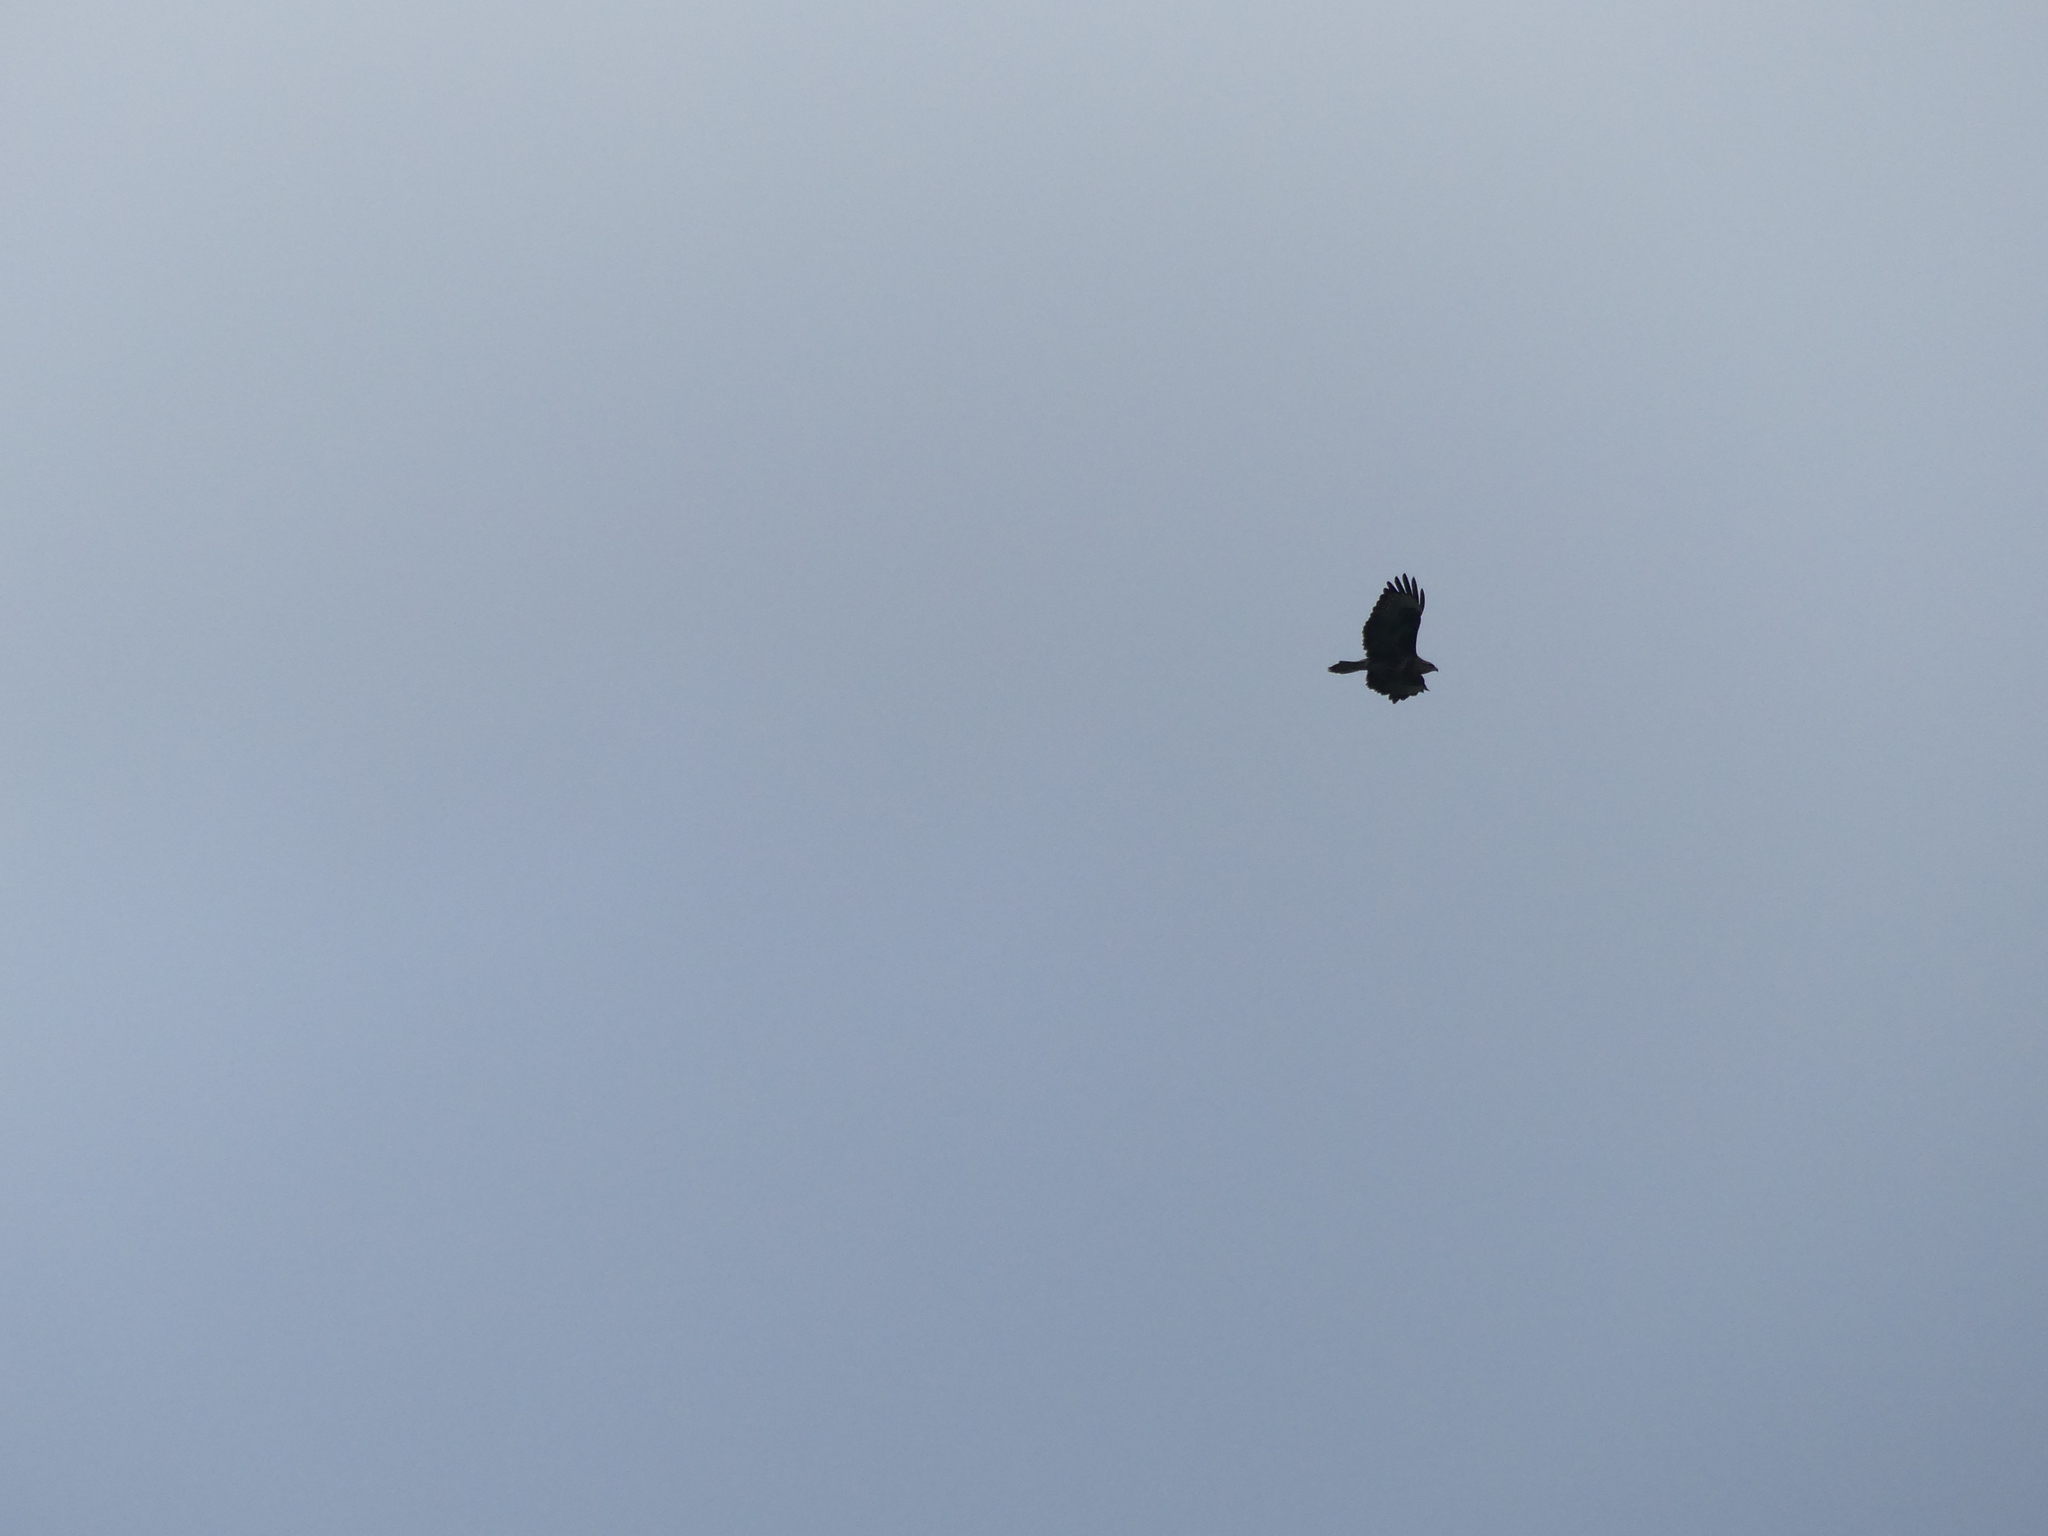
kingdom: Animalia
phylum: Chordata
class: Aves
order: Accipitriformes
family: Accipitridae
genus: Buteo
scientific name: Buteo buteo
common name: Common buzzard
